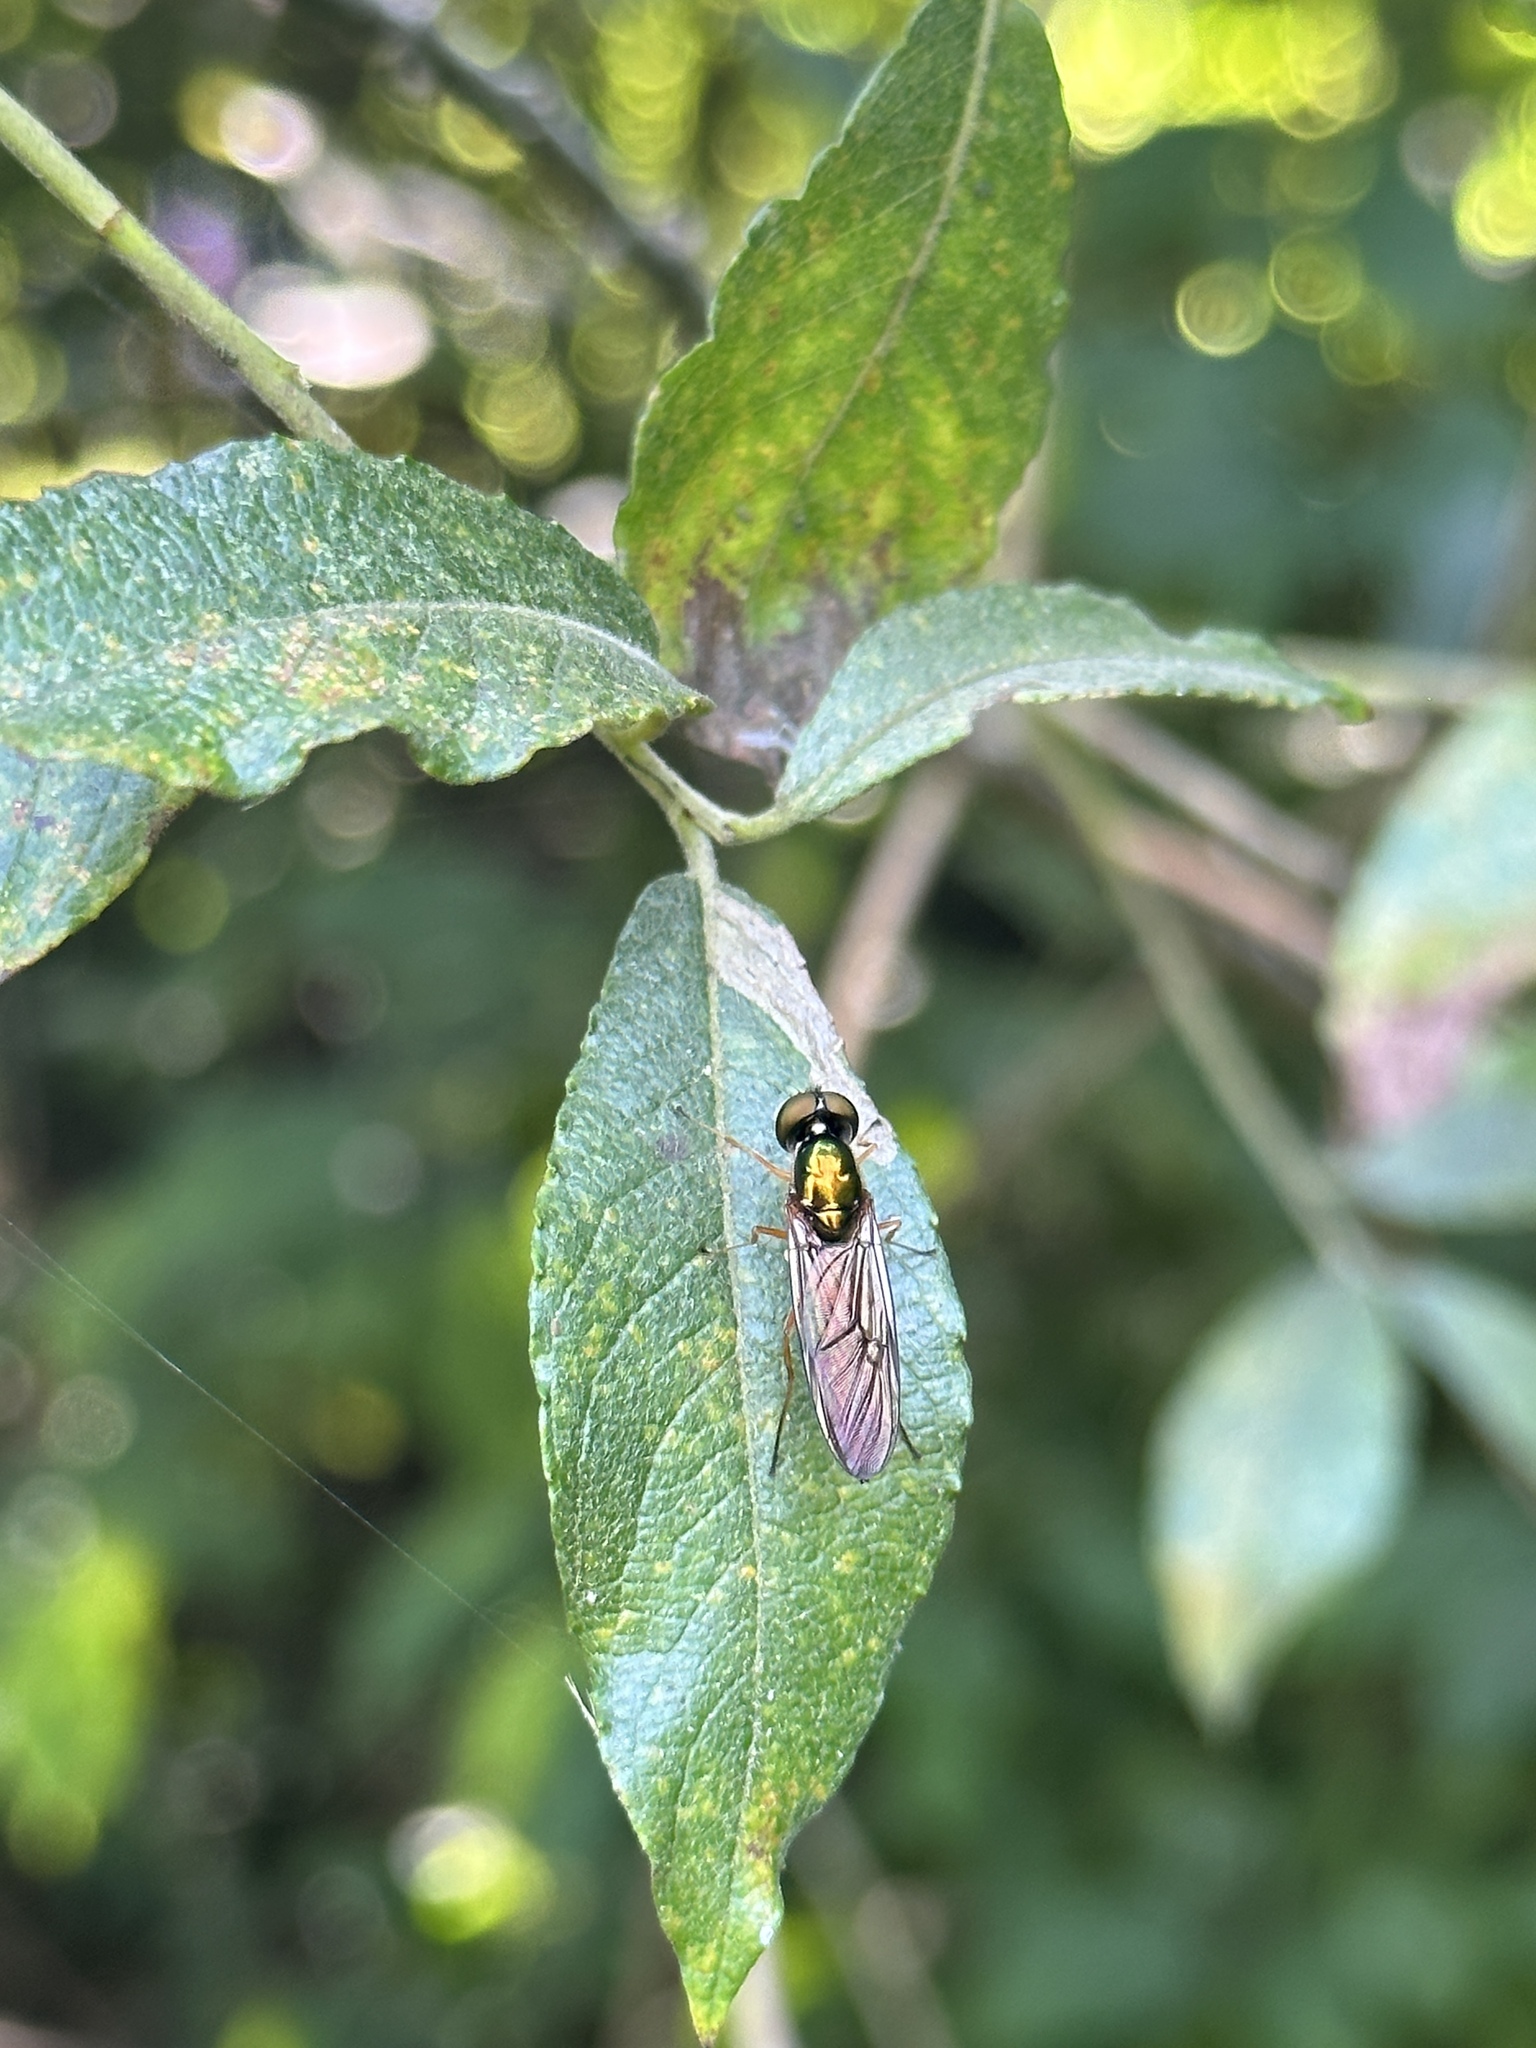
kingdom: Animalia
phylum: Arthropoda
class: Insecta
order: Diptera
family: Stratiomyidae
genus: Sargus
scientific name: Sargus bipunctatus
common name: Twin-spot centurion
